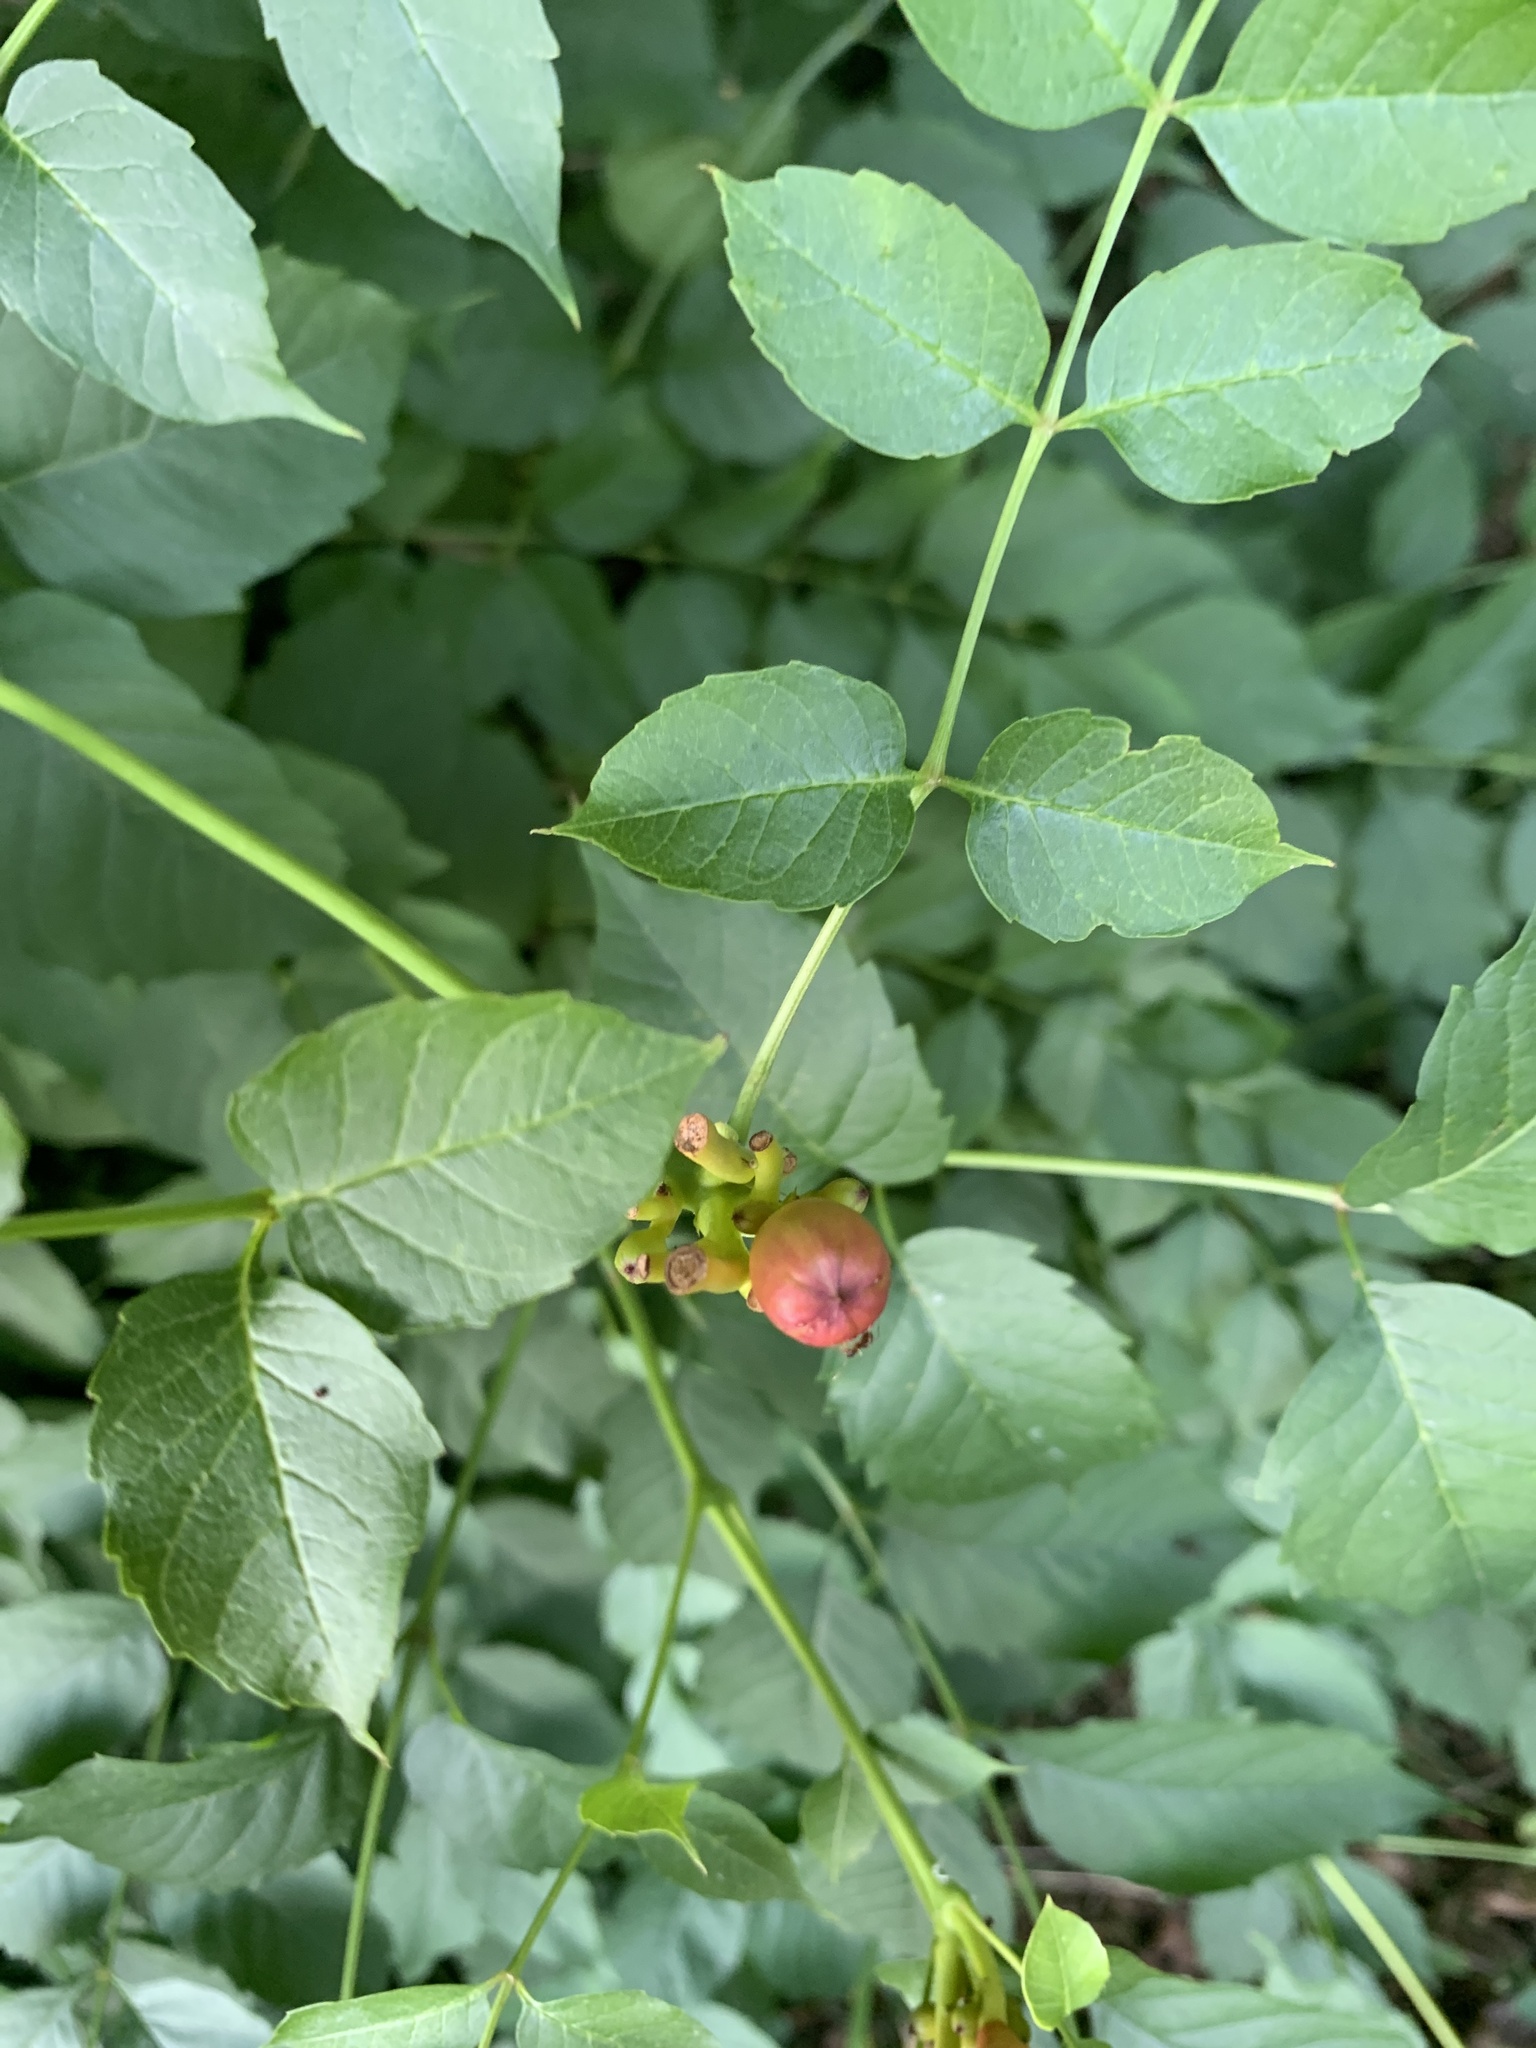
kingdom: Plantae
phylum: Tracheophyta
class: Magnoliopsida
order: Lamiales
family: Bignoniaceae
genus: Campsis
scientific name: Campsis radicans
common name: Trumpet-creeper
